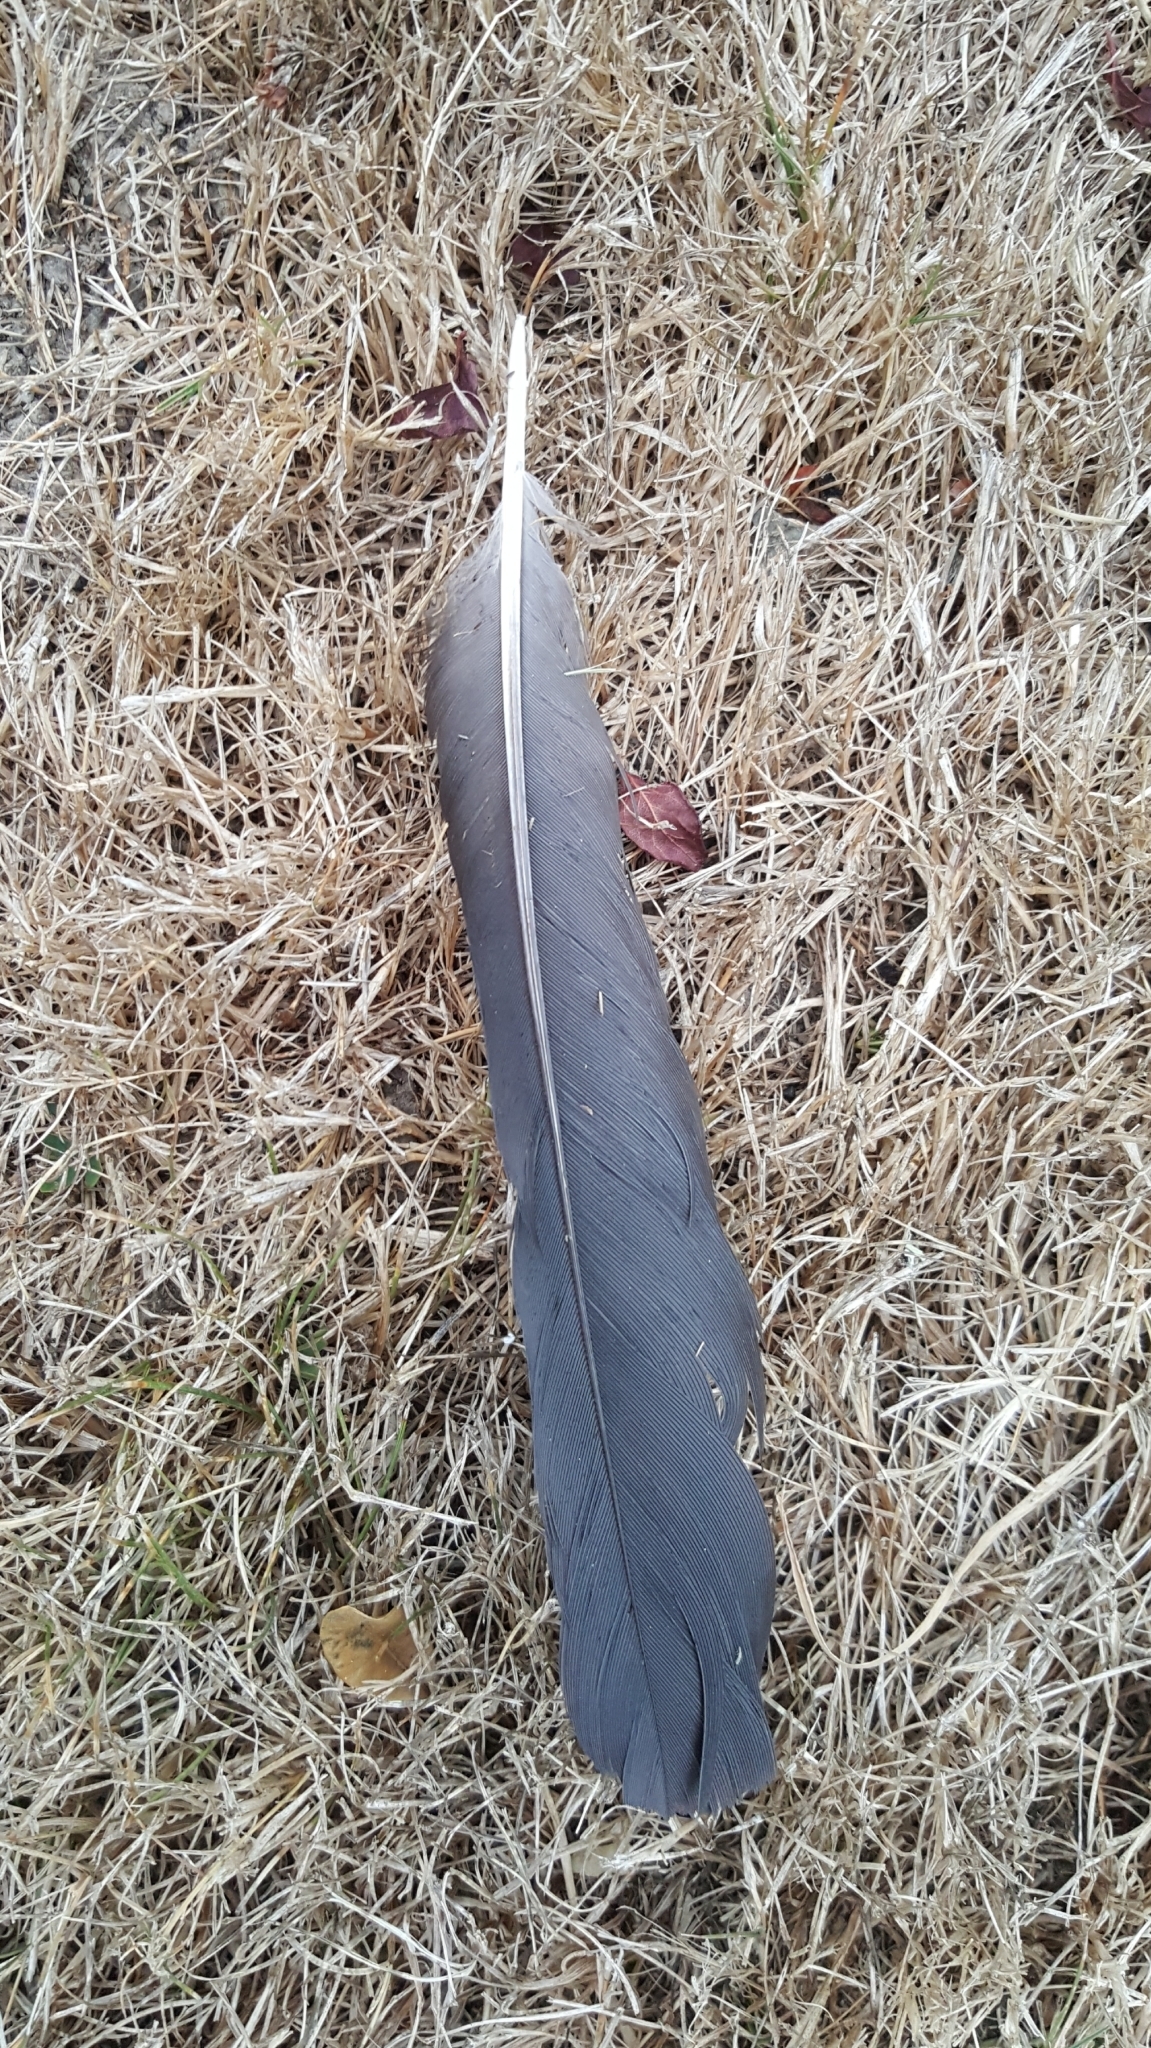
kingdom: Animalia
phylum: Chordata
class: Aves
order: Passeriformes
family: Corvidae
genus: Corvus
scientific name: Corvus brachyrhynchos
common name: American crow
